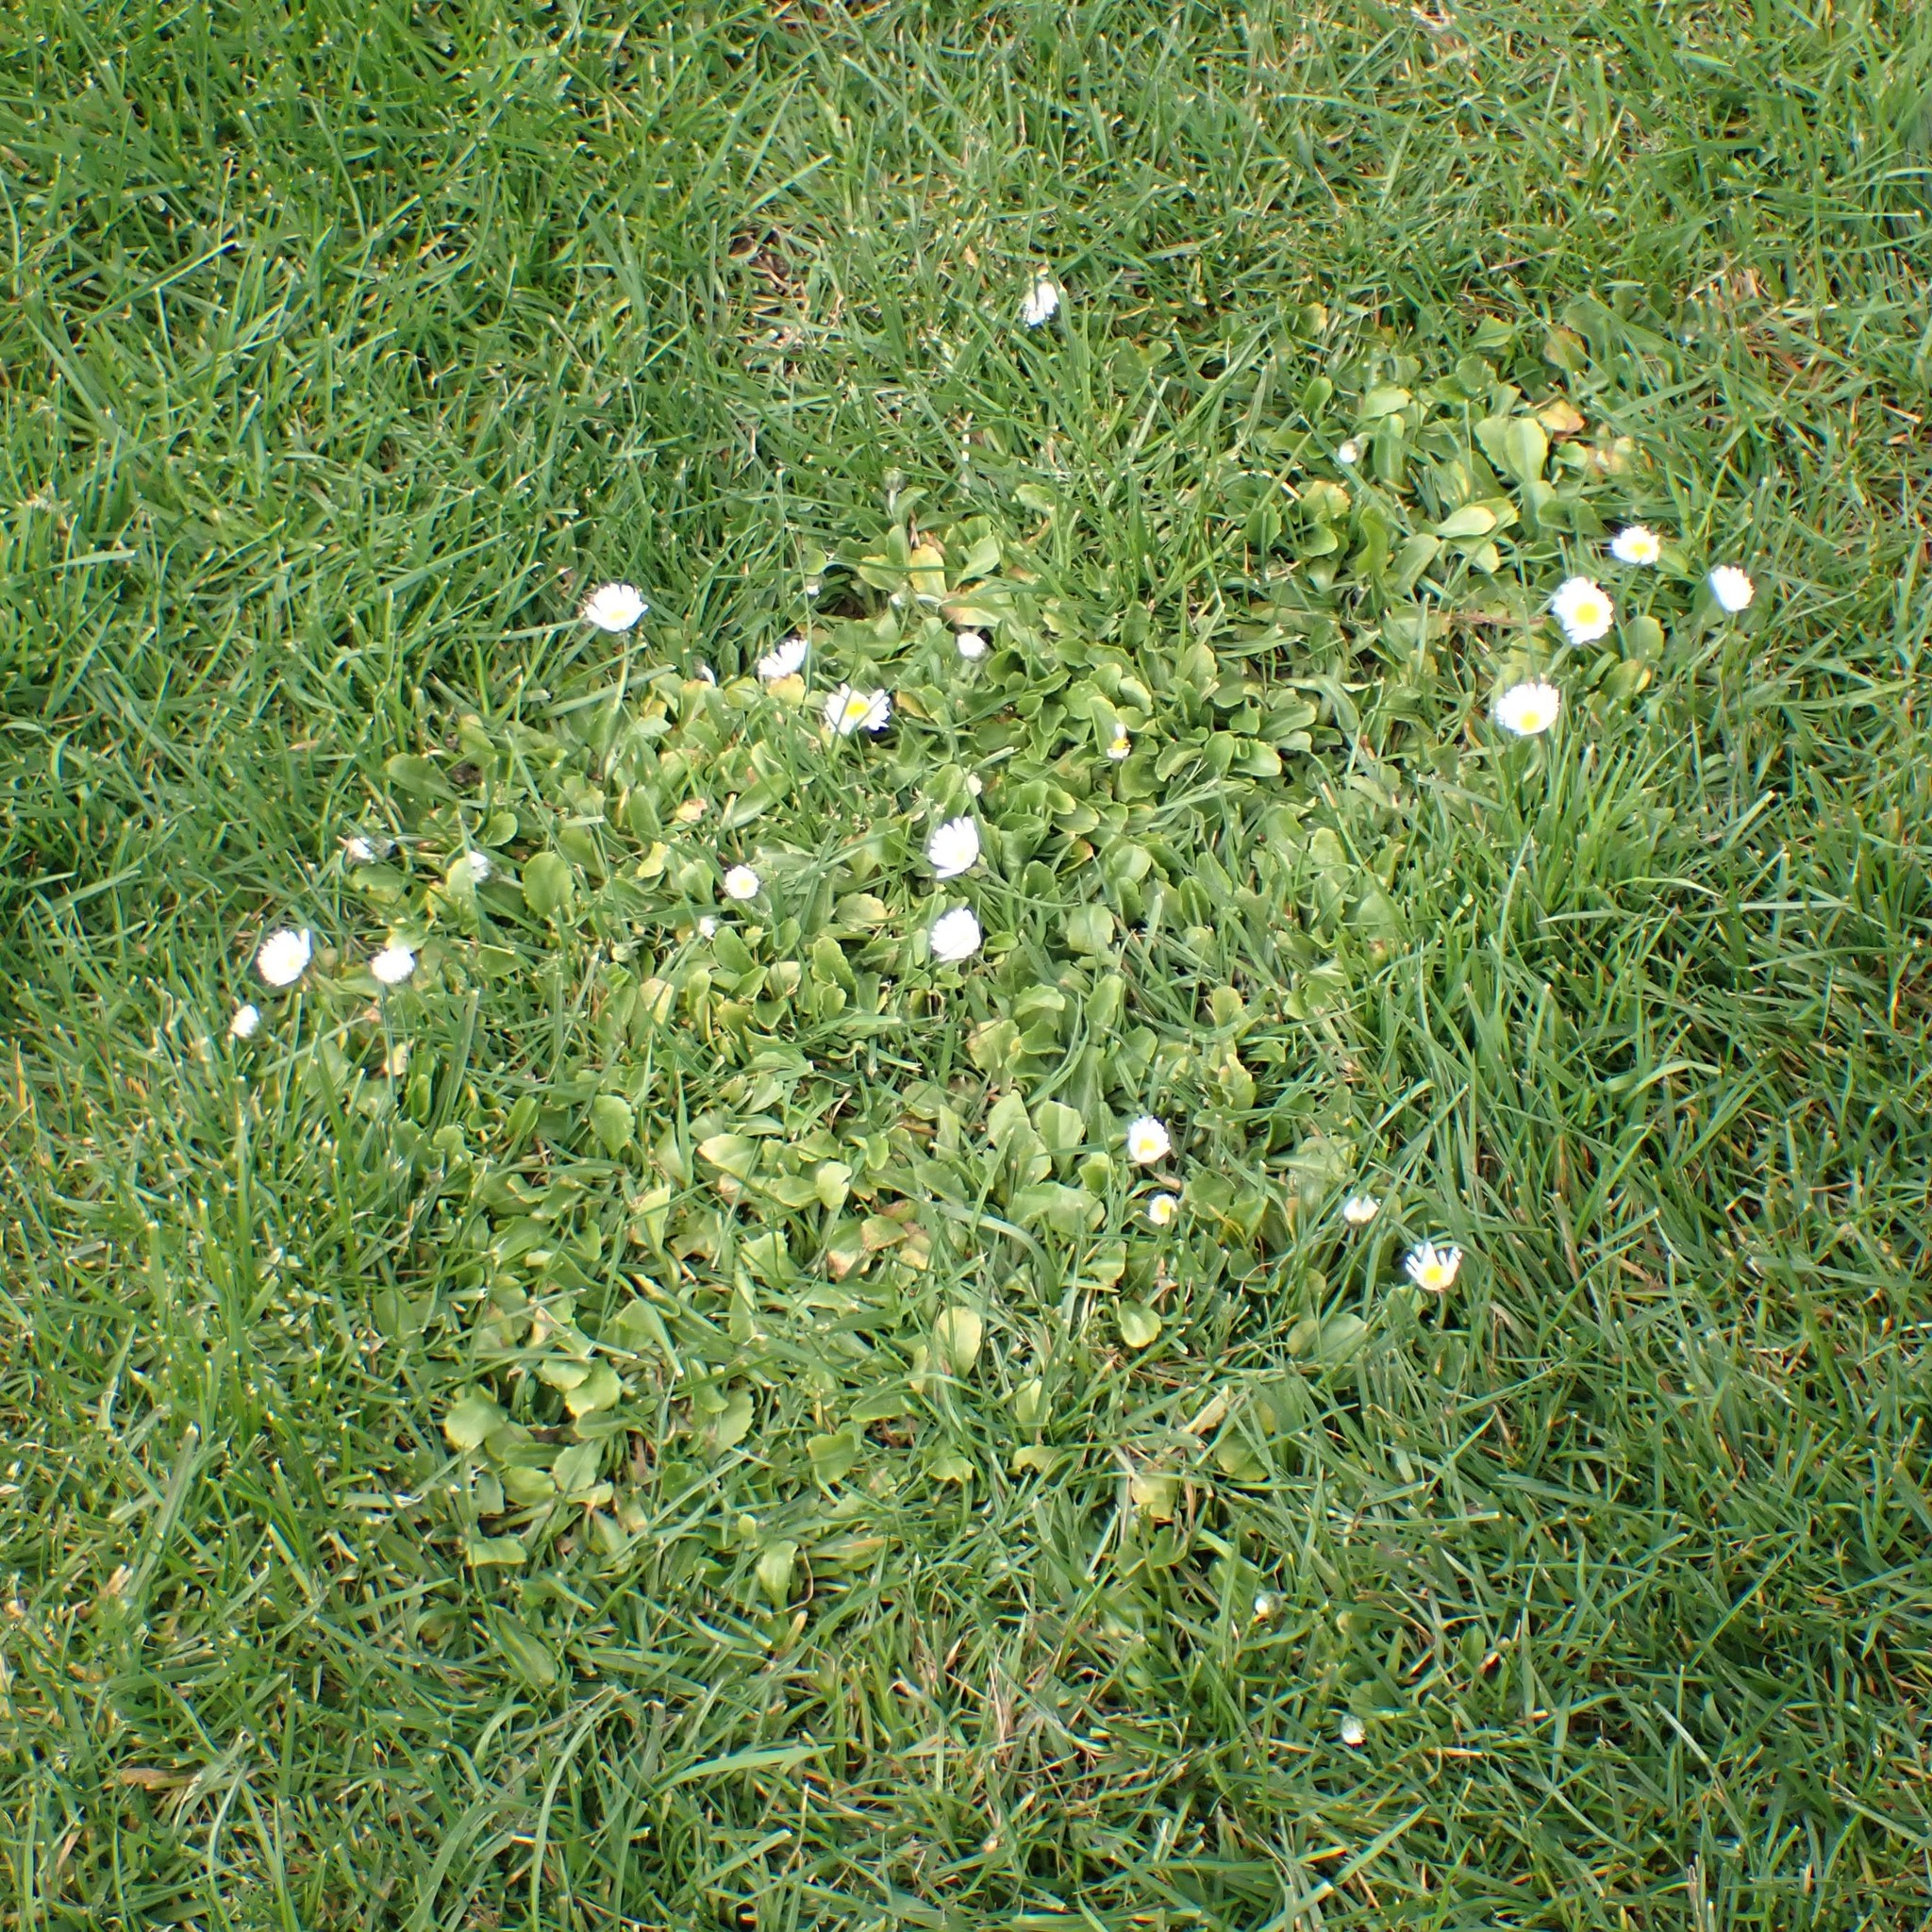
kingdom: Plantae
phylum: Tracheophyta
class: Magnoliopsida
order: Asterales
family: Asteraceae
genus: Bellis
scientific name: Bellis perennis
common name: Lawndaisy
